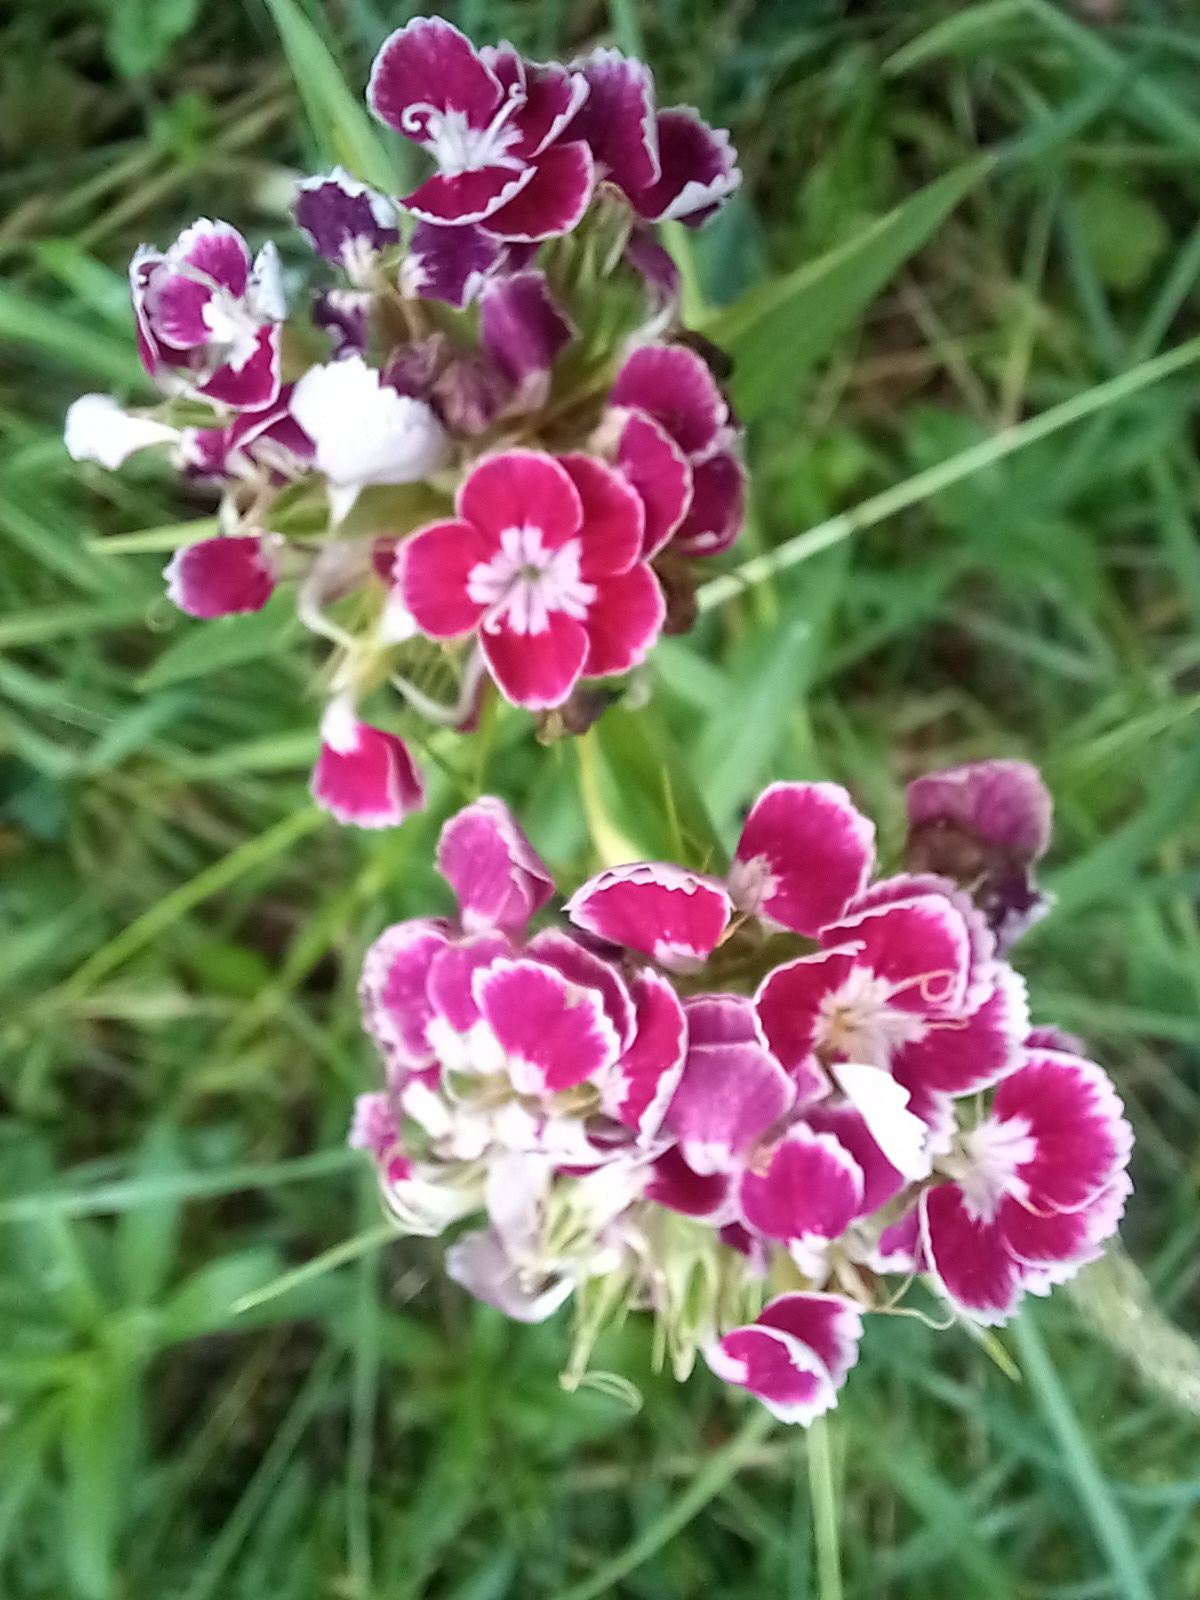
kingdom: Plantae
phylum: Tracheophyta
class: Magnoliopsida
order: Caryophyllales
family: Caryophyllaceae
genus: Dianthus
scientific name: Dianthus barbatus
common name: Sweet-william
